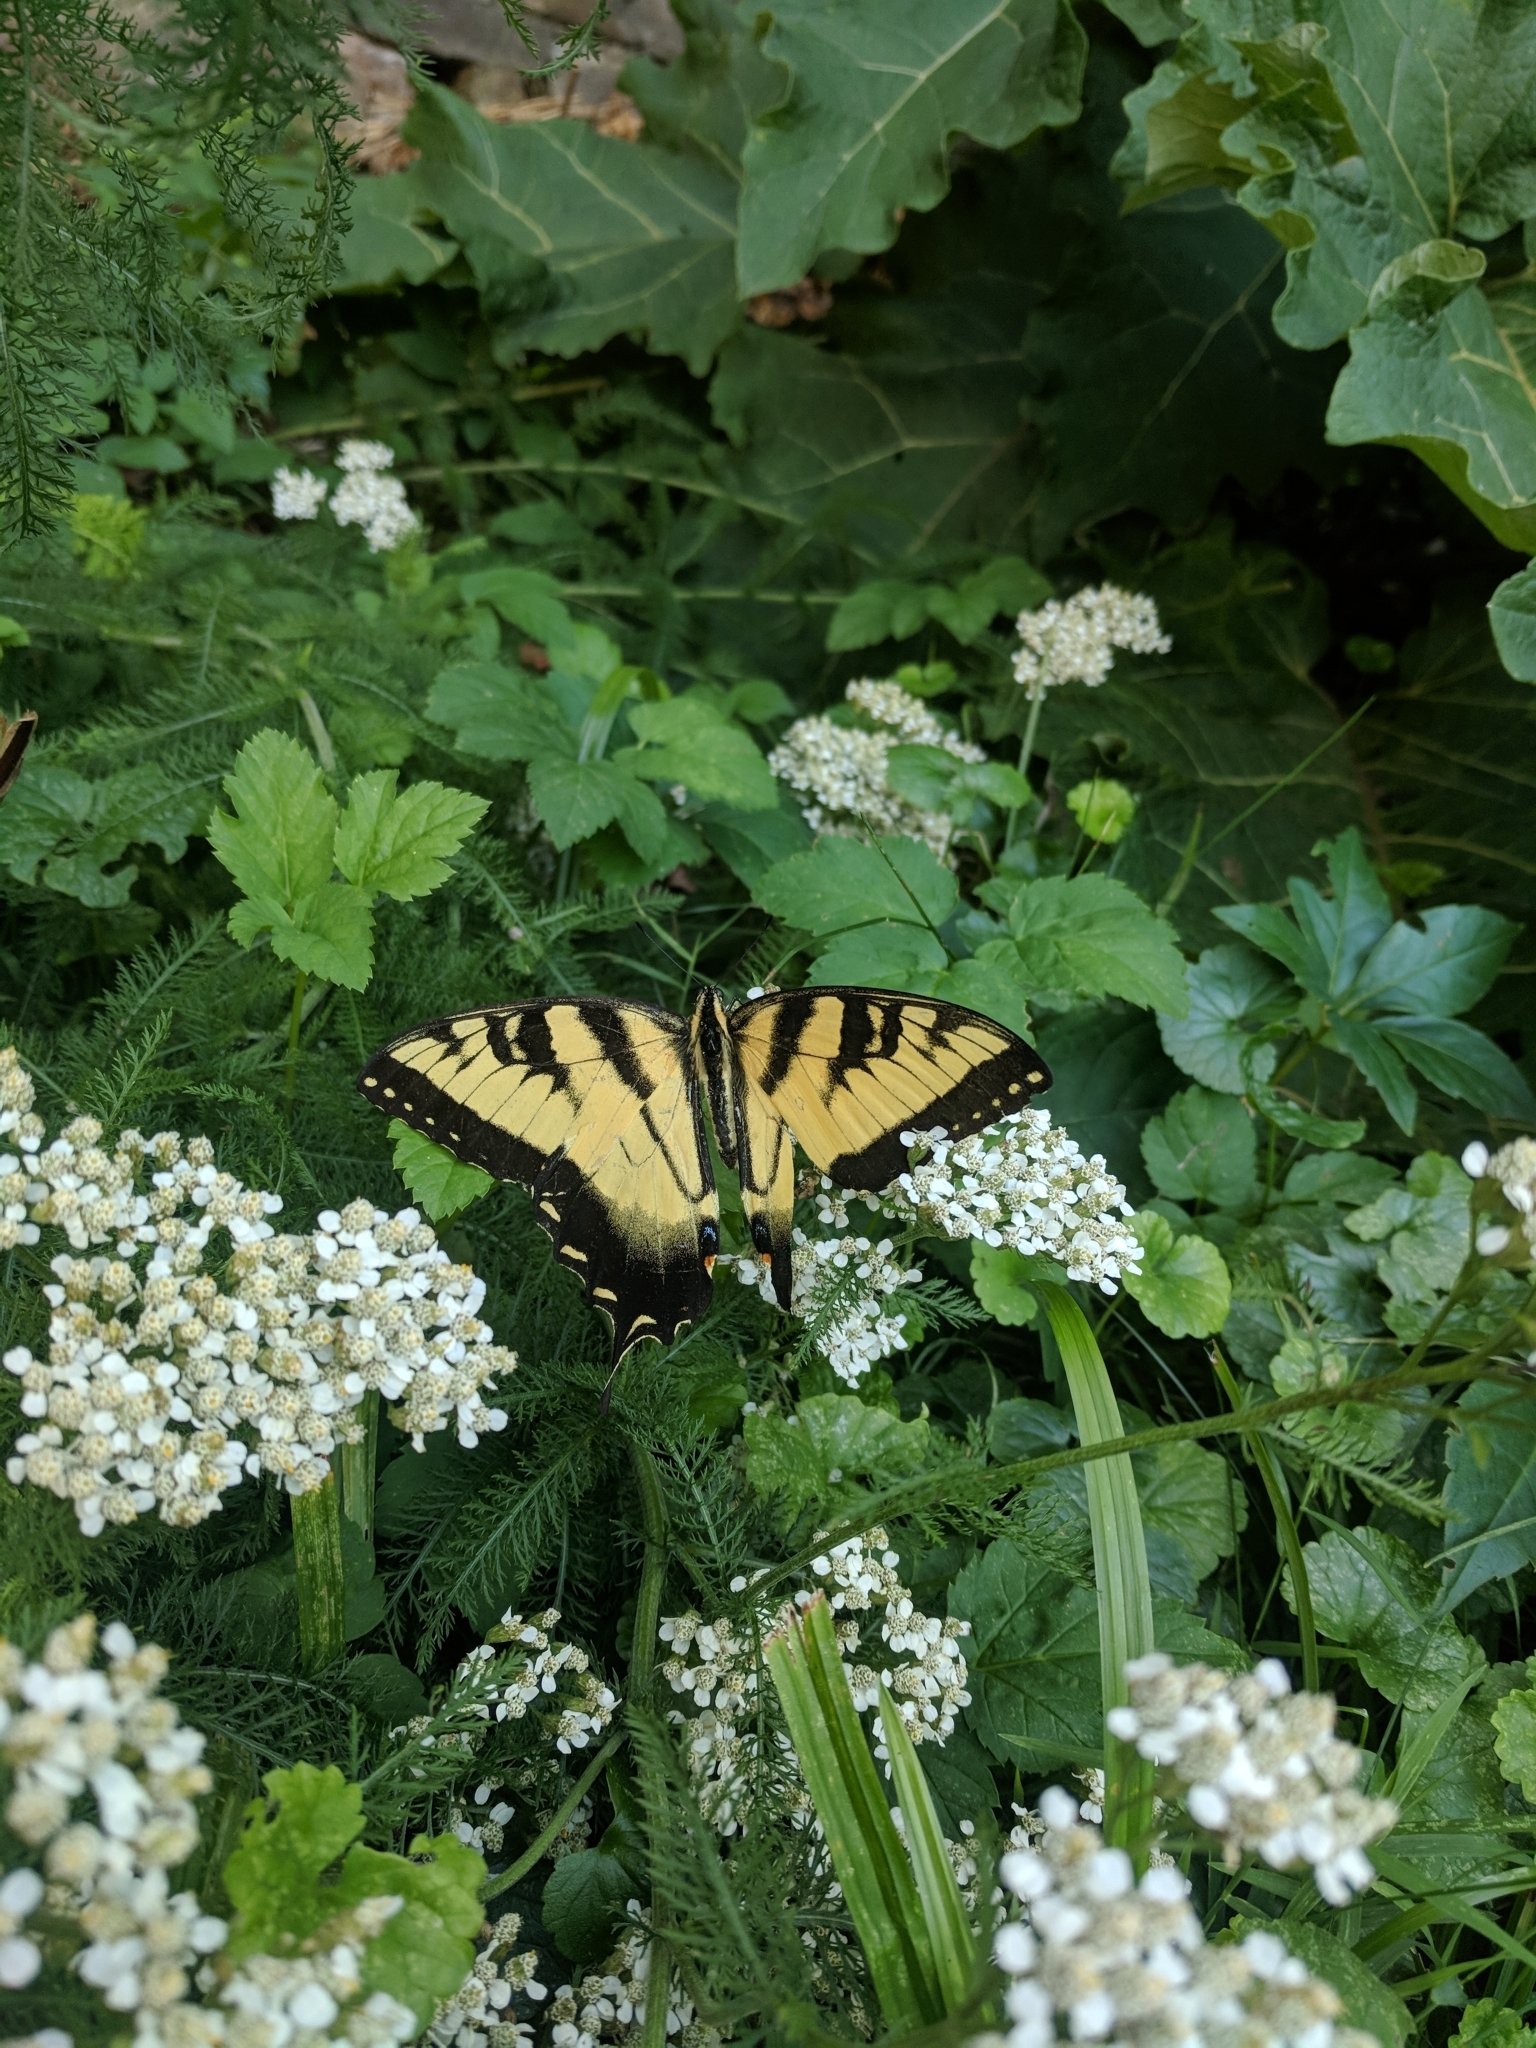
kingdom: Animalia
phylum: Arthropoda
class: Insecta
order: Lepidoptera
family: Papilionidae
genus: Papilio
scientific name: Papilio glaucus
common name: Tiger swallowtail
